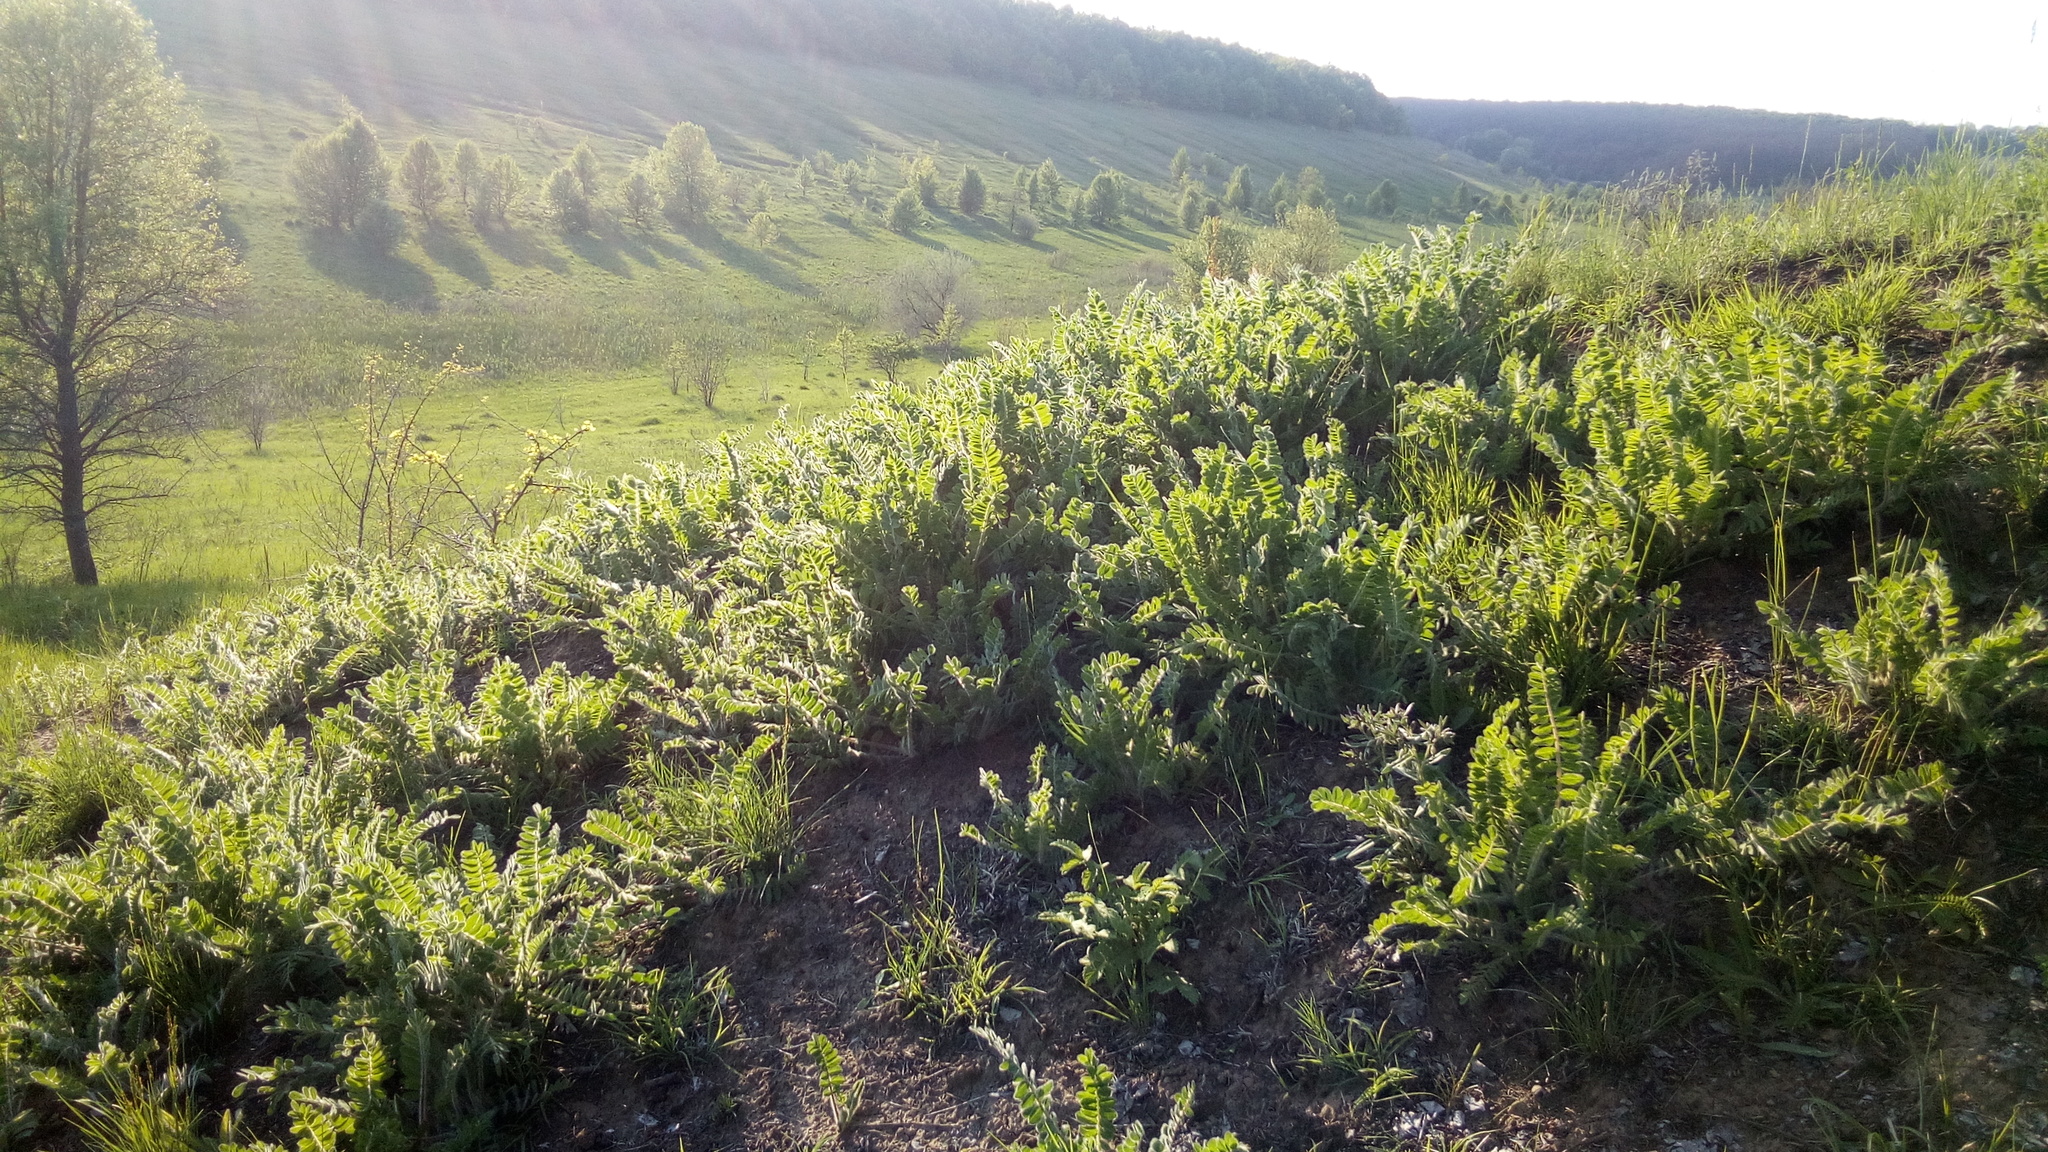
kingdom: Plantae
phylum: Tracheophyta
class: Magnoliopsida
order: Fabales
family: Fabaceae
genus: Astragalus
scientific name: Astragalus dasyanthus
